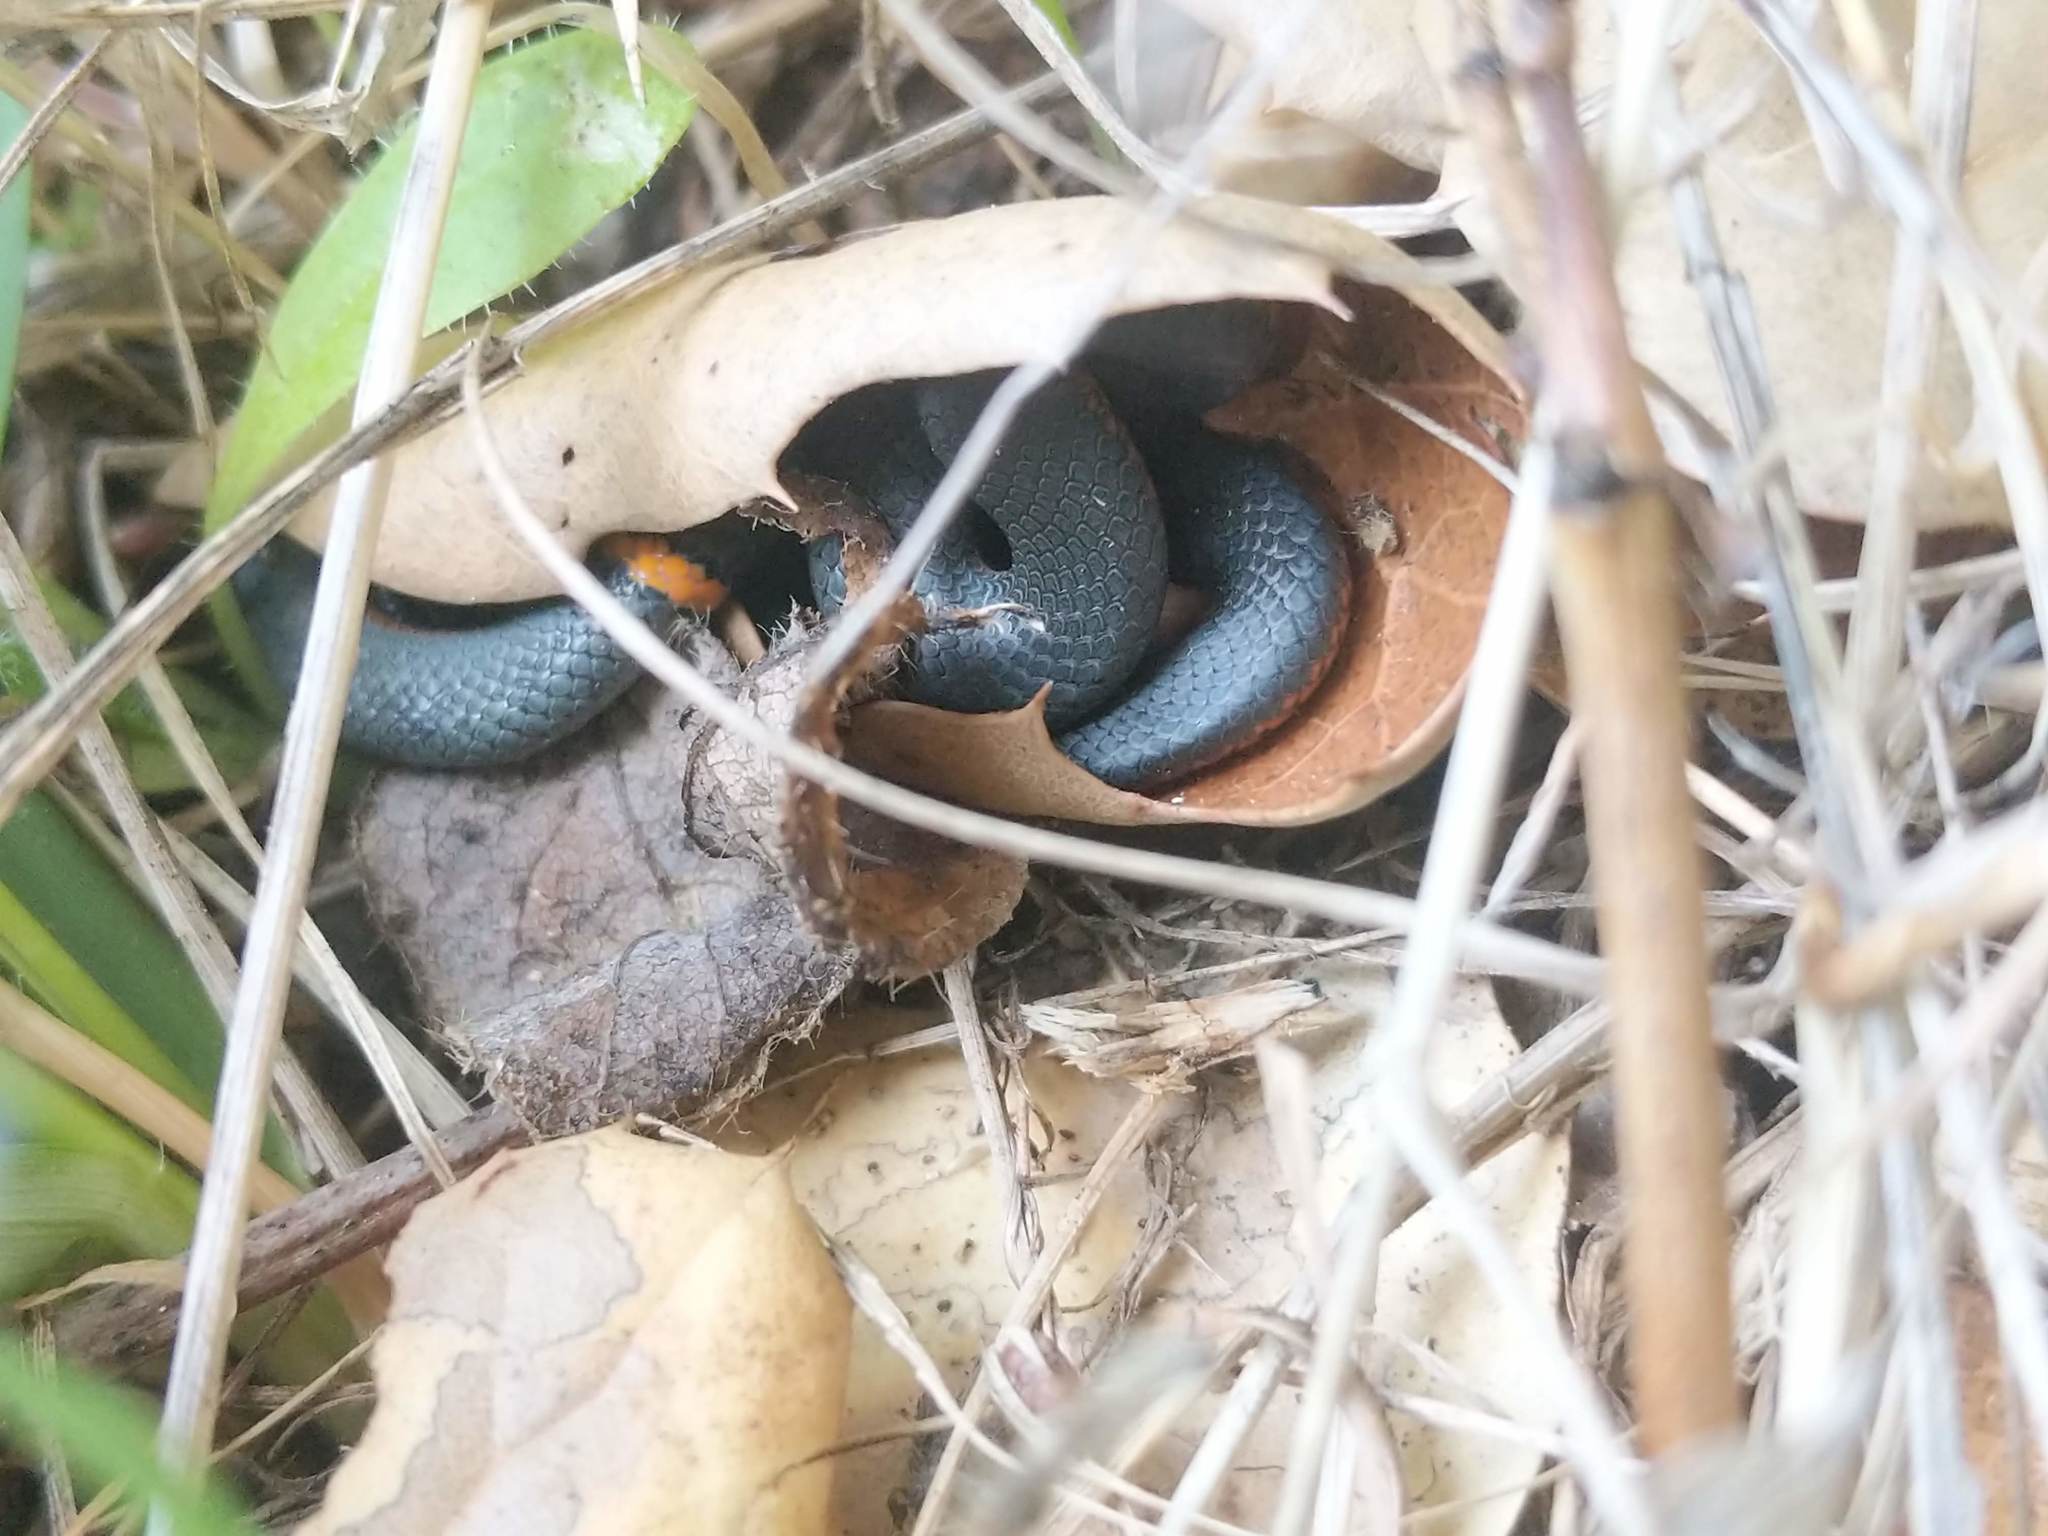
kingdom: Animalia
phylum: Chordata
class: Squamata
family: Colubridae
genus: Diadophis
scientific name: Diadophis punctatus
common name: Ringneck snake
